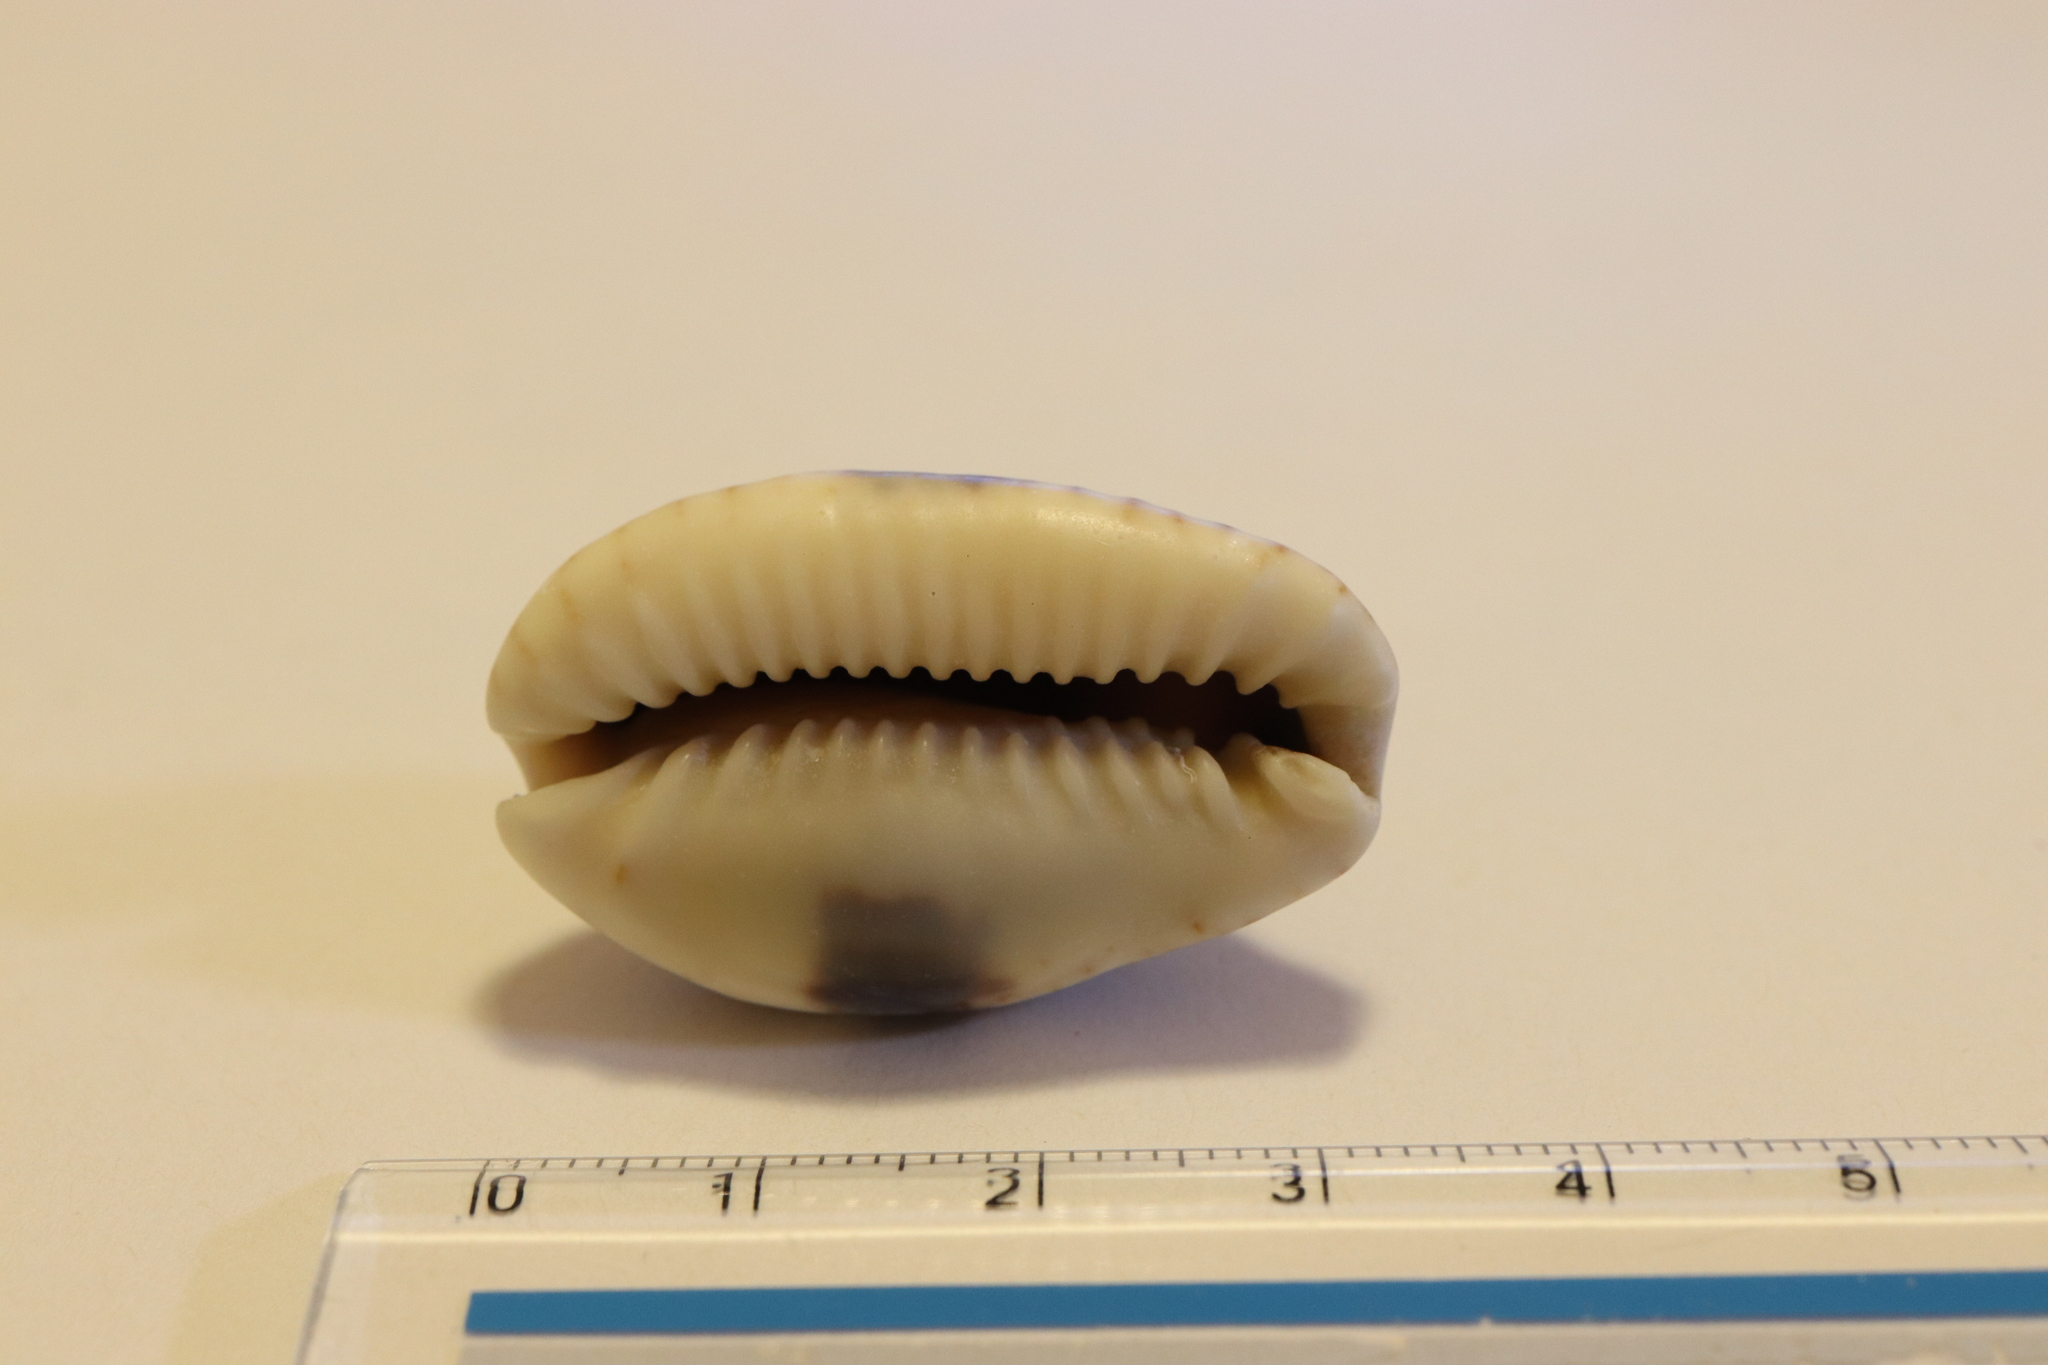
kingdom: Animalia
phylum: Mollusca
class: Gastropoda
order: Littorinimorpha
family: Cypraeidae
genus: Naria
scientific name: Naria erosa
